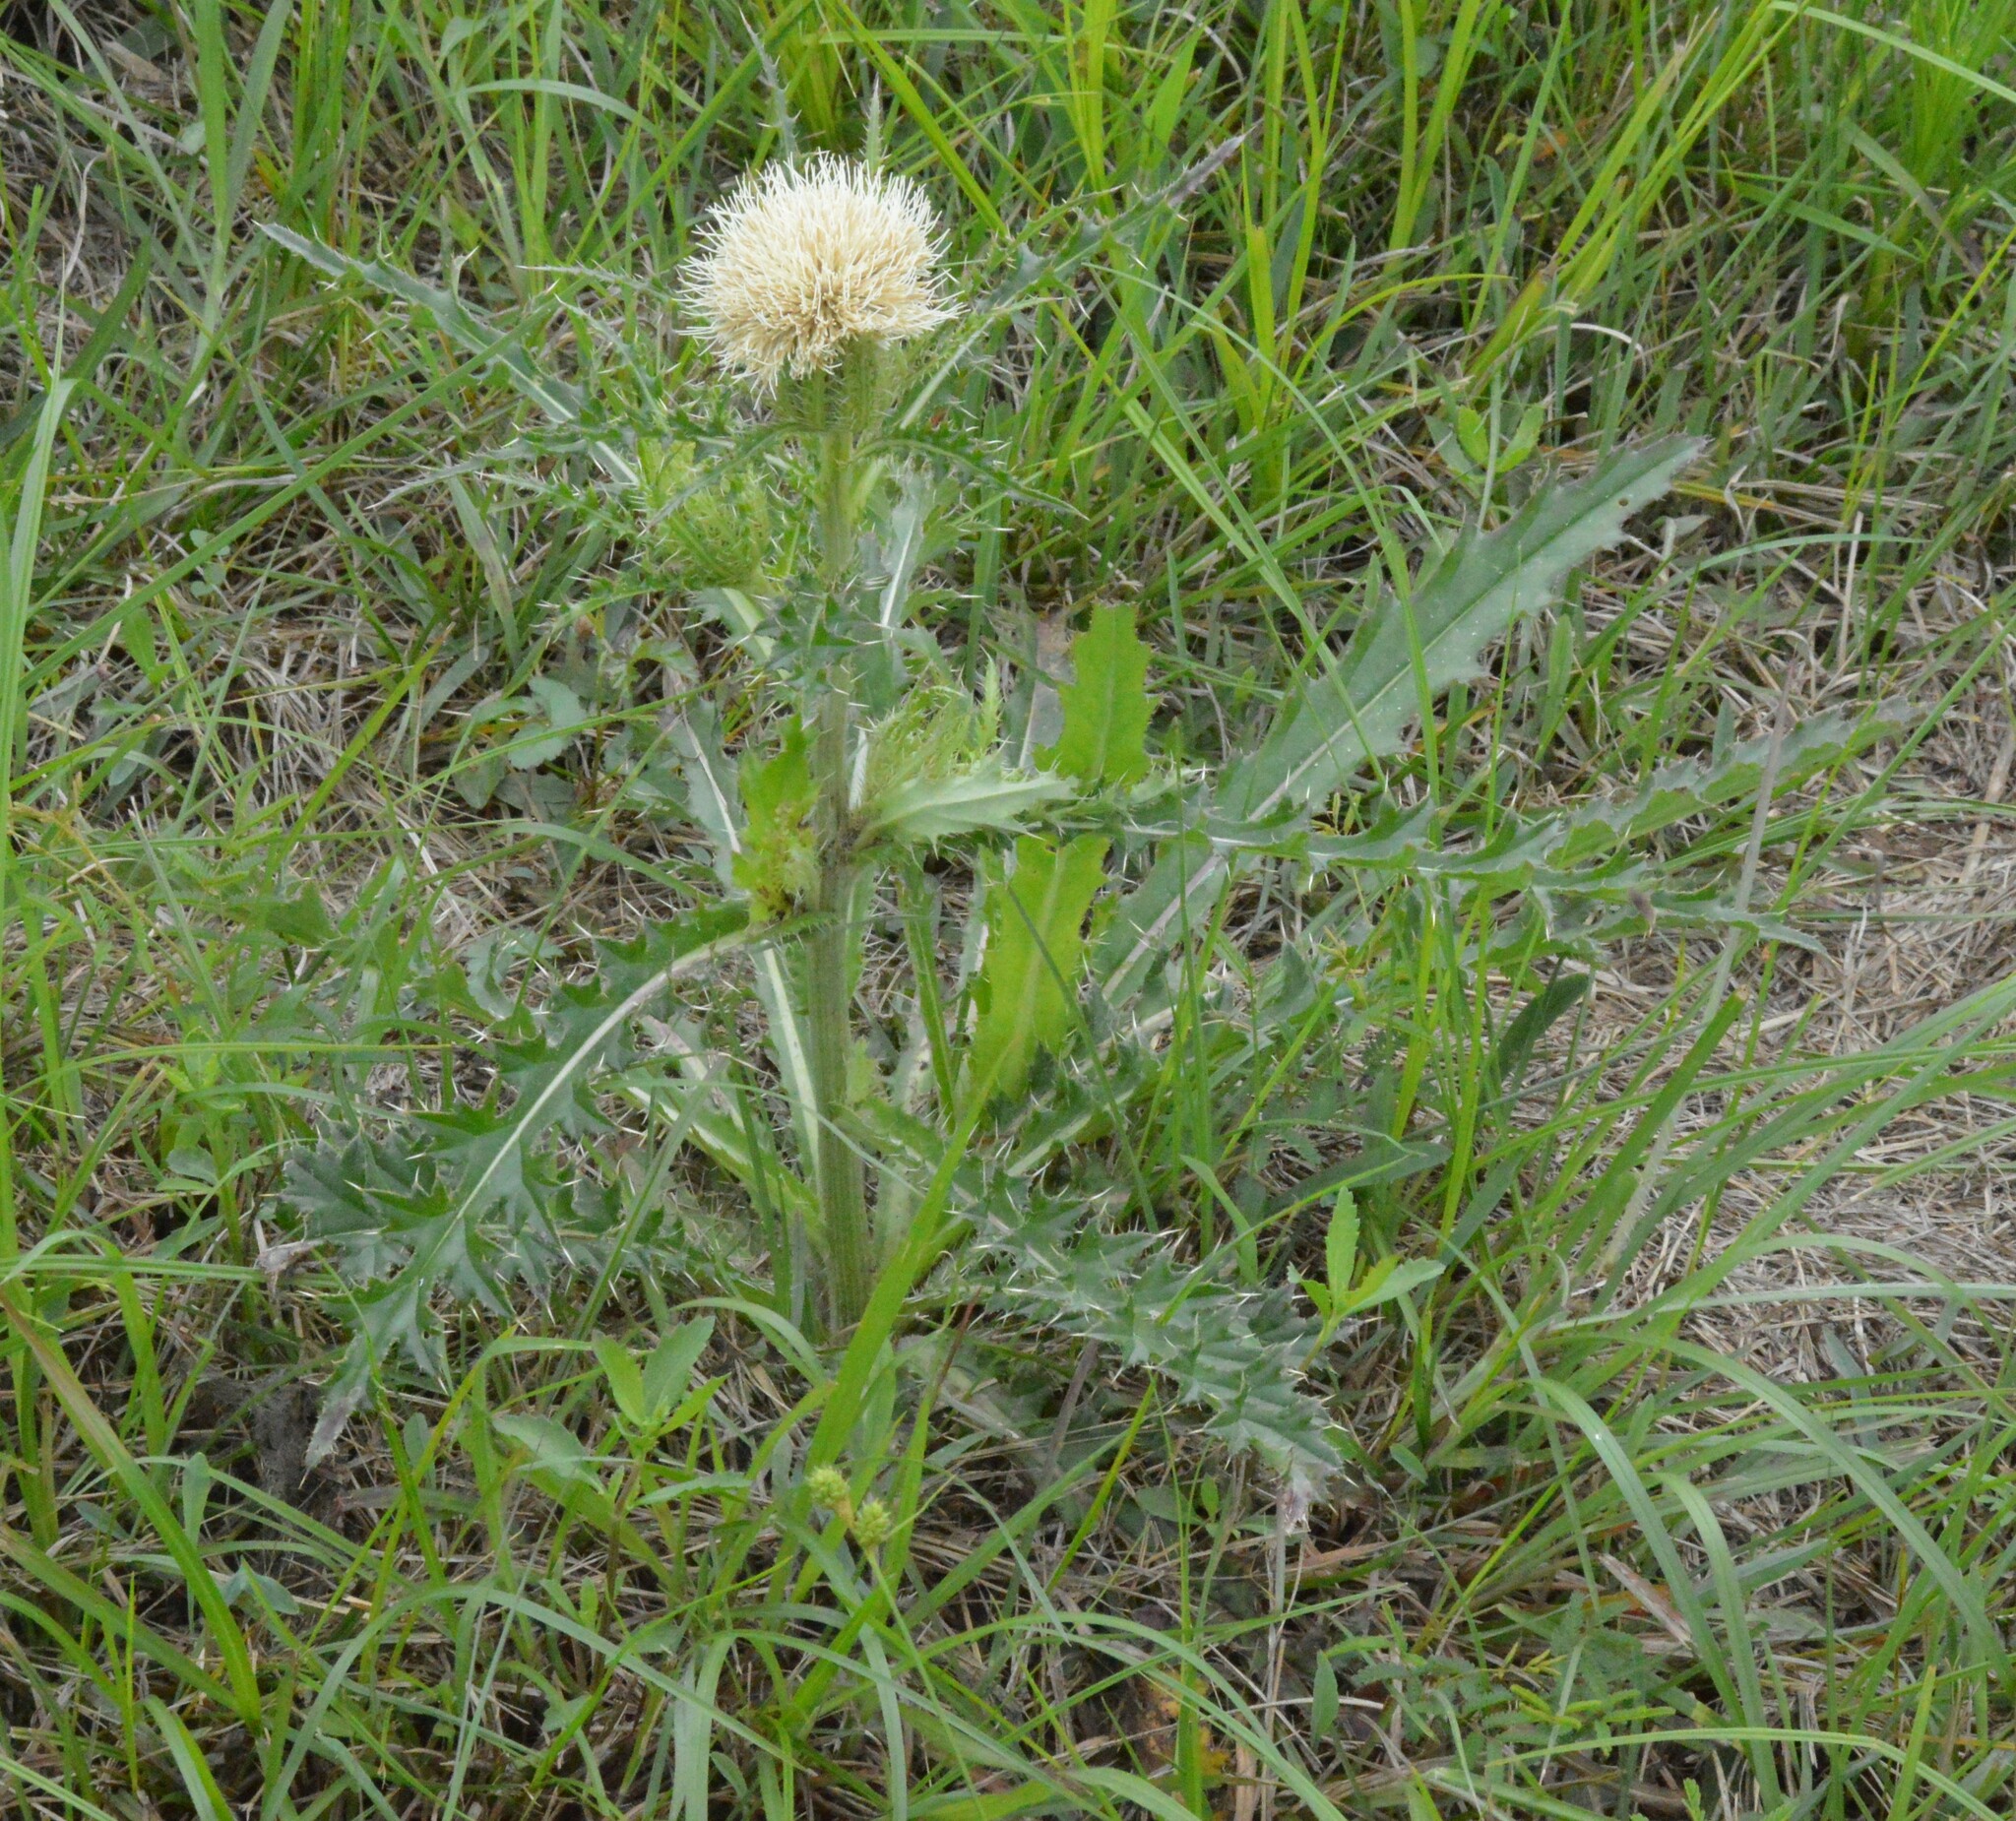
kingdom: Plantae
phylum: Tracheophyta
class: Magnoliopsida
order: Asterales
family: Asteraceae
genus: Cirsium
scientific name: Cirsium horridulum
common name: Bristly thistle
